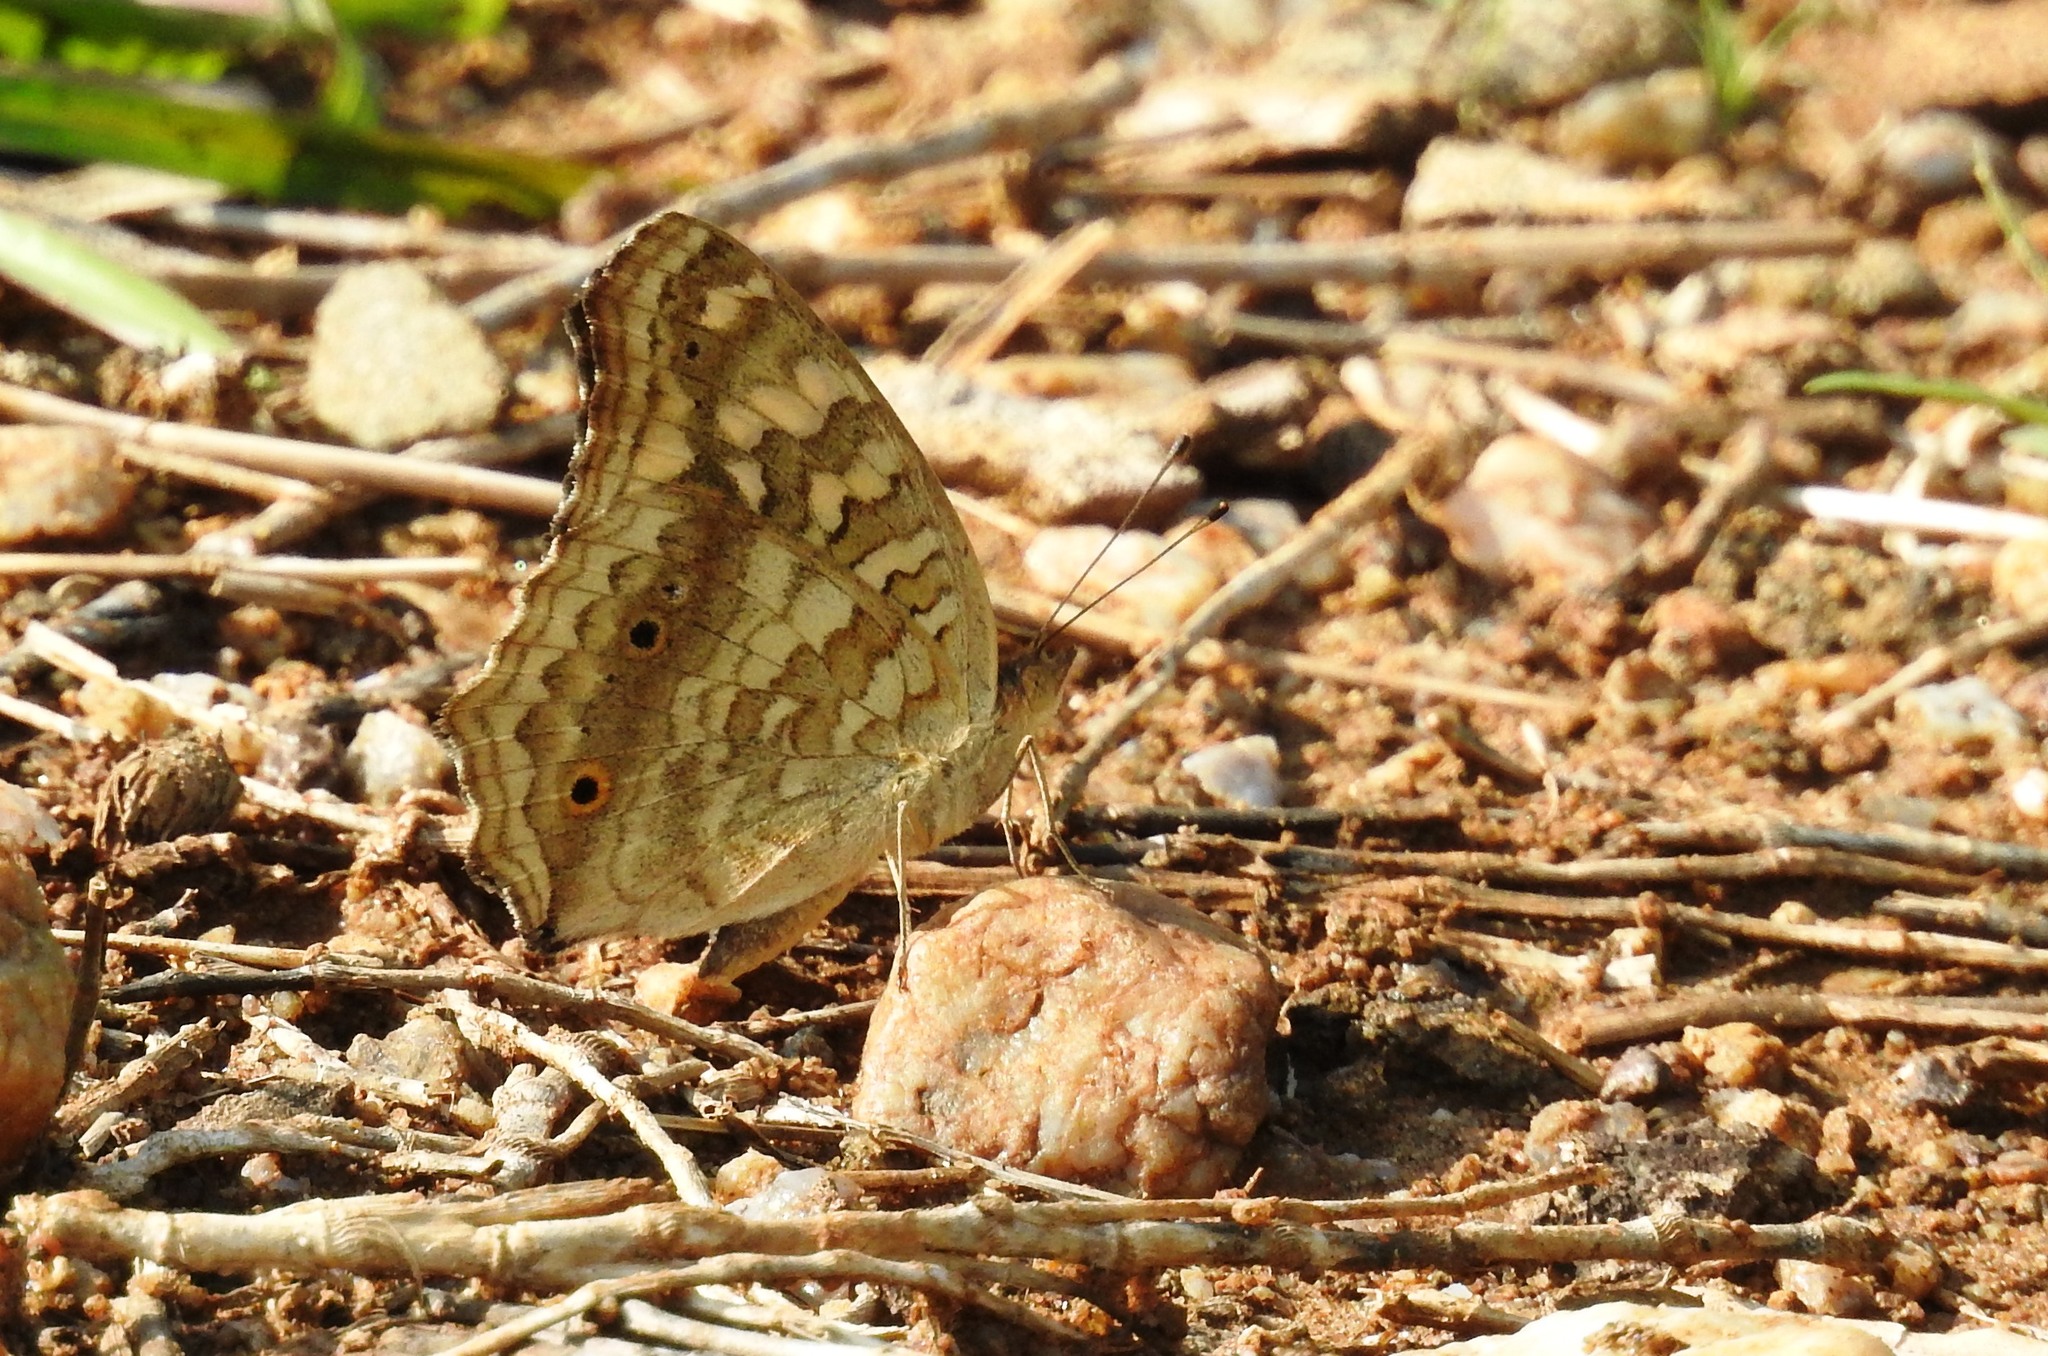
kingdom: Animalia
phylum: Arthropoda
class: Insecta
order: Lepidoptera
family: Nymphalidae
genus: Junonia
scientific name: Junonia lemonias
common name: Lemon pansy
